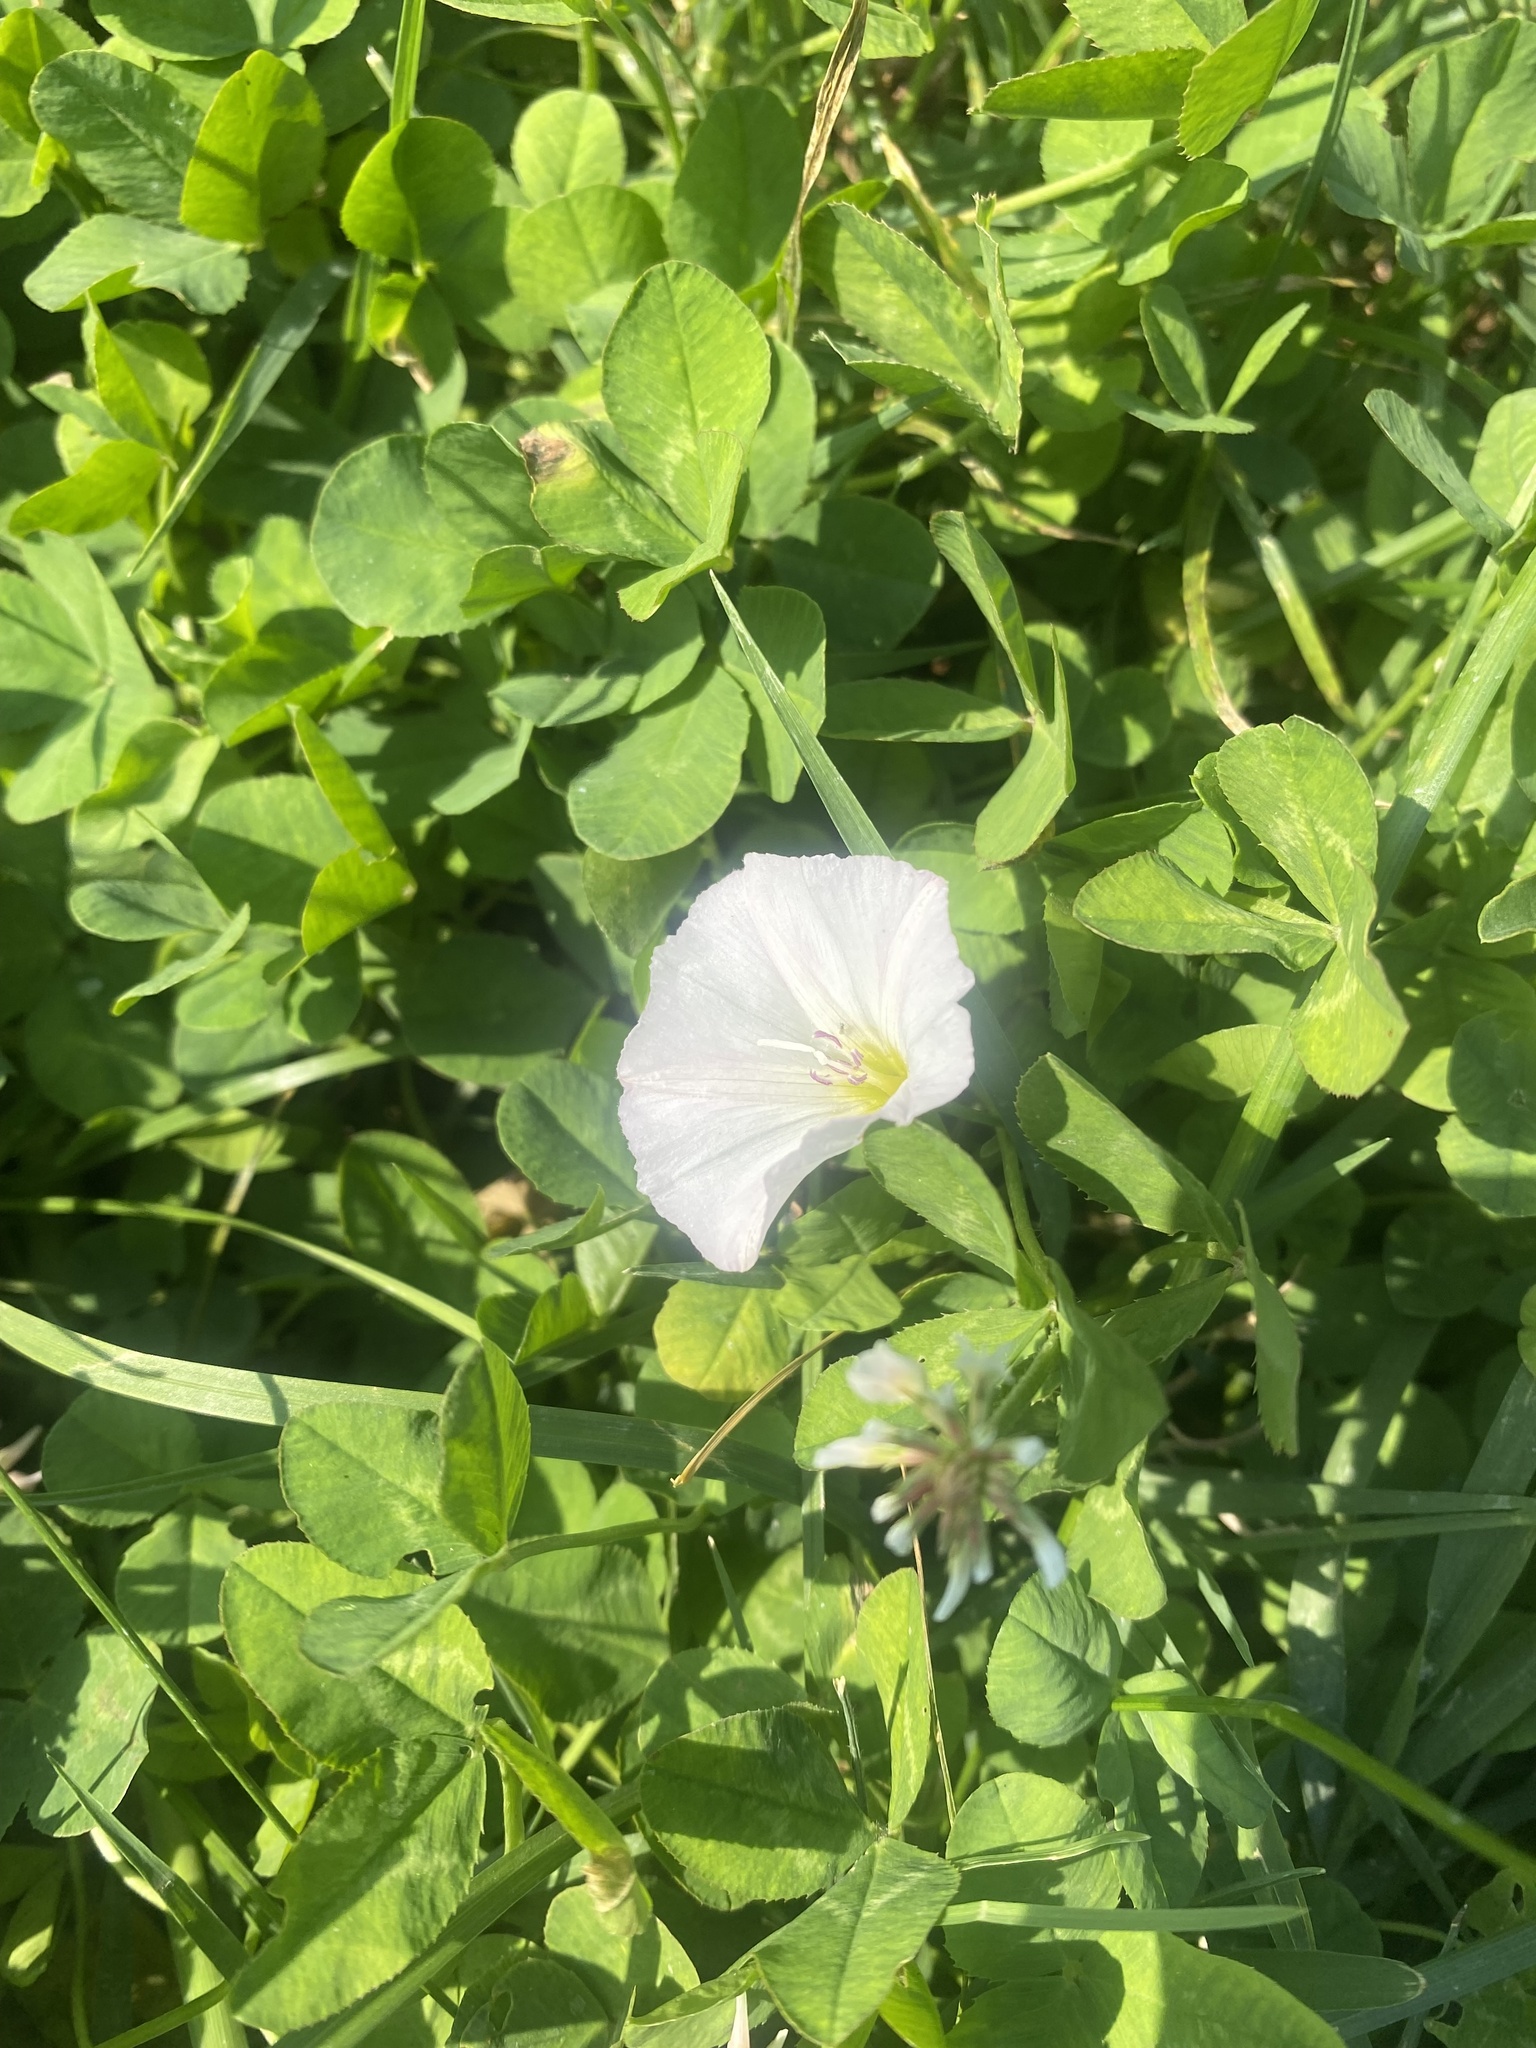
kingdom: Plantae
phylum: Tracheophyta
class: Magnoliopsida
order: Solanales
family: Convolvulaceae
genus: Convolvulus
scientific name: Convolvulus arvensis
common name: Field bindweed
